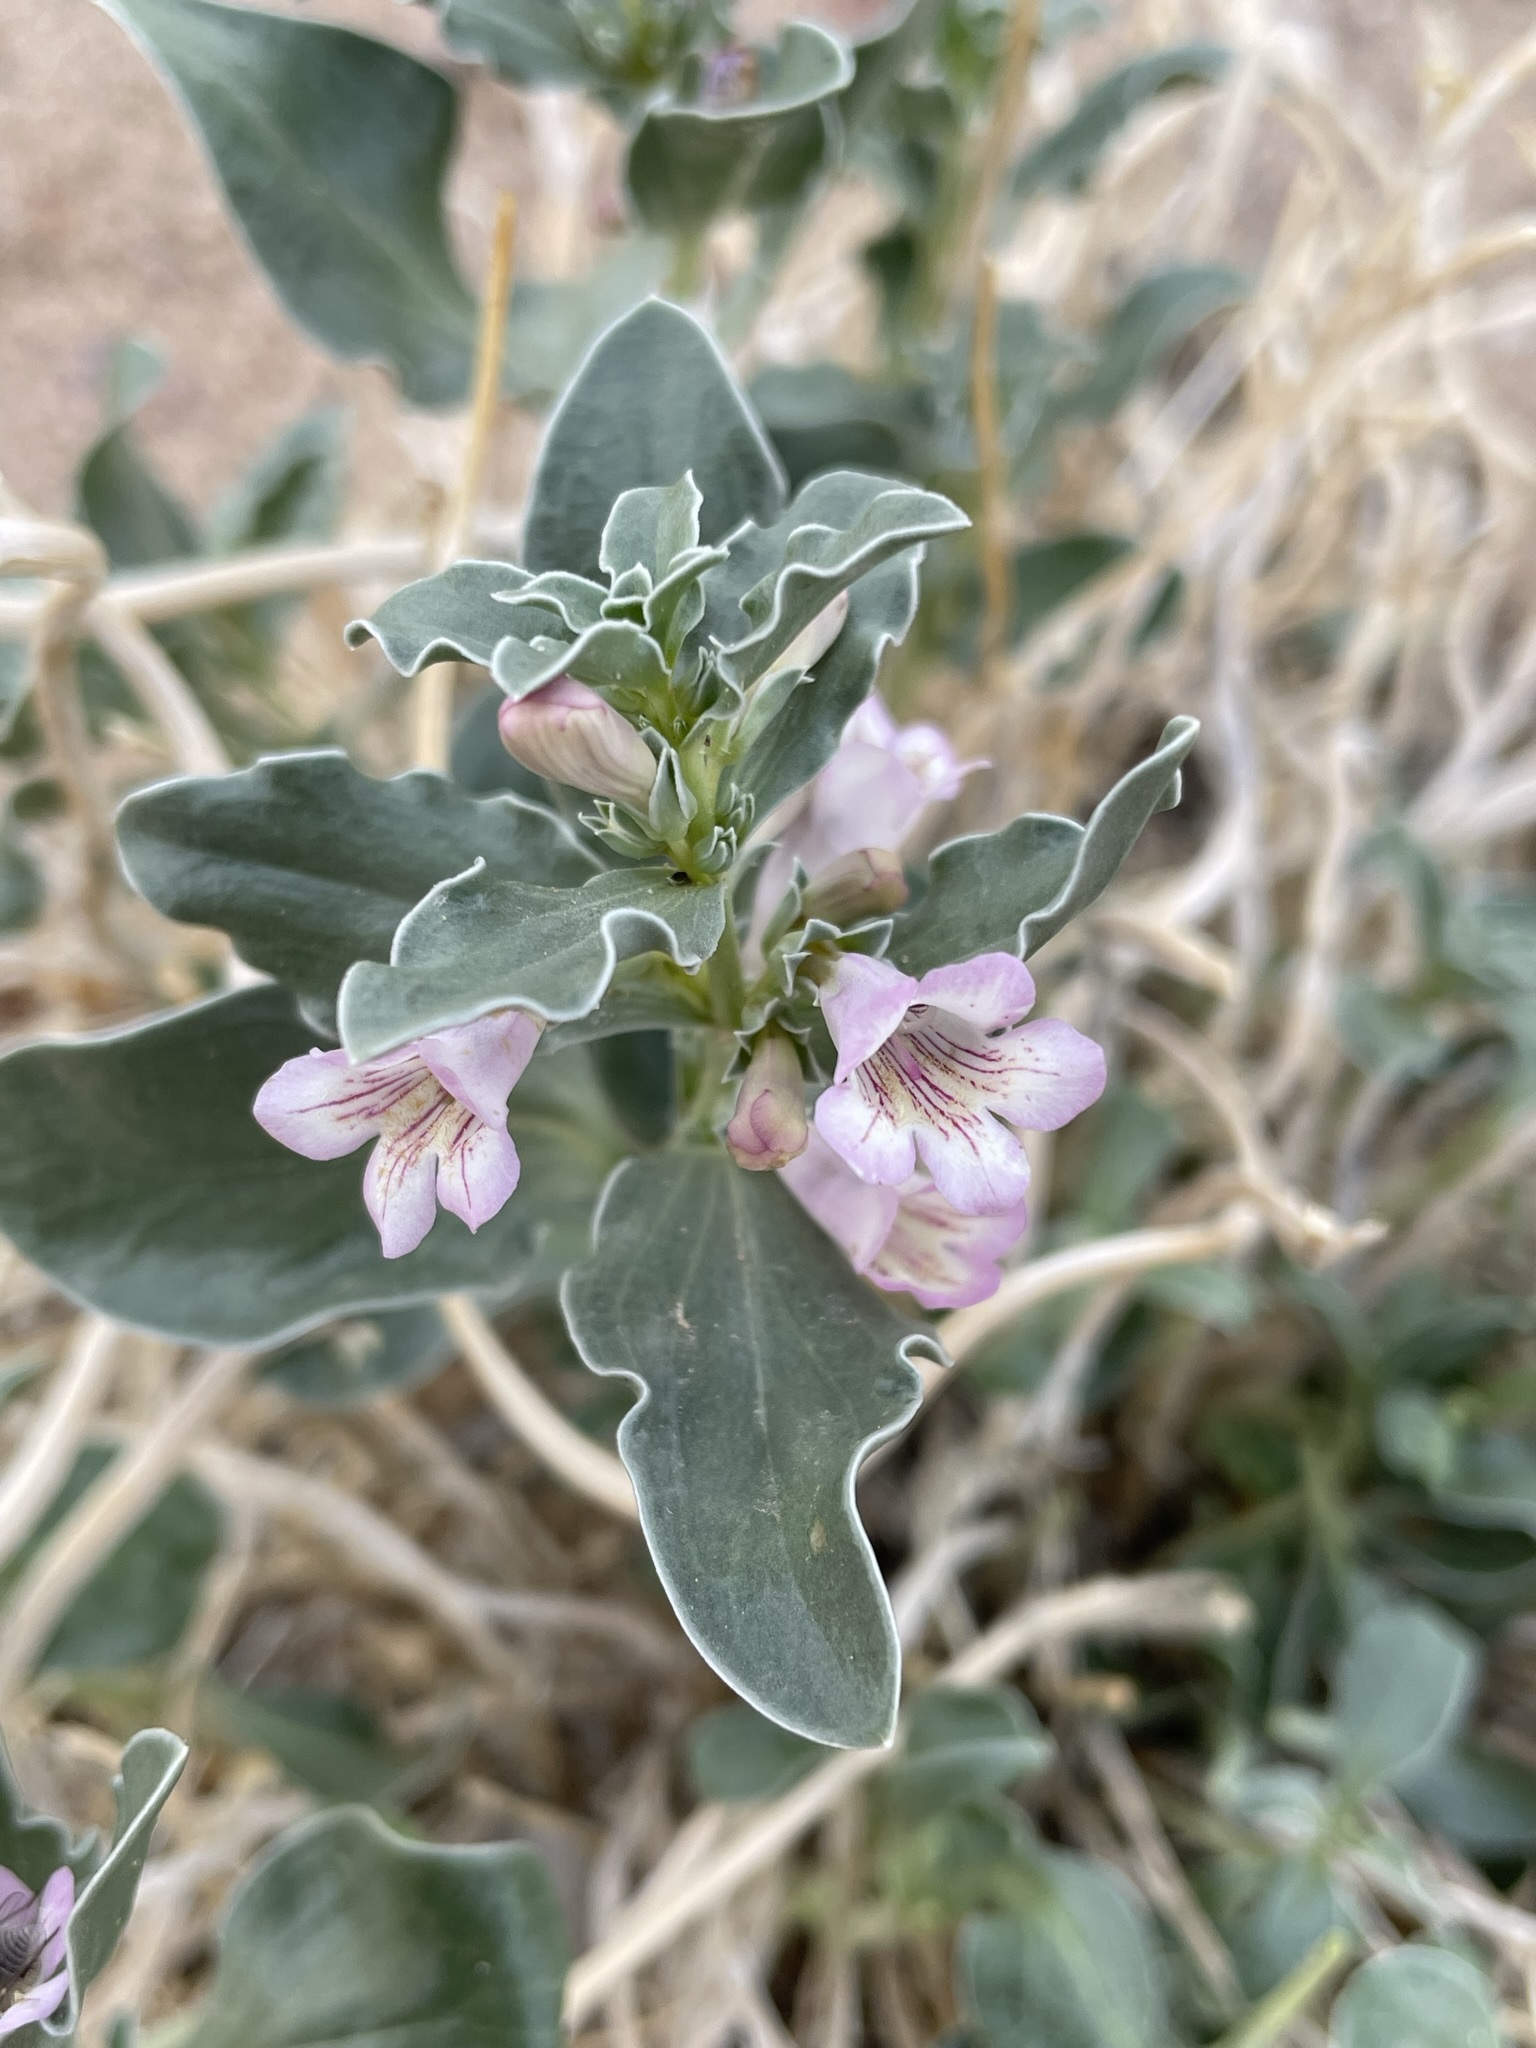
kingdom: Plantae
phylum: Tracheophyta
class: Magnoliopsida
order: Lamiales
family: Plantaginaceae
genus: Penstemon
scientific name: Penstemon albomarginatus
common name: White-margin beardtongue
